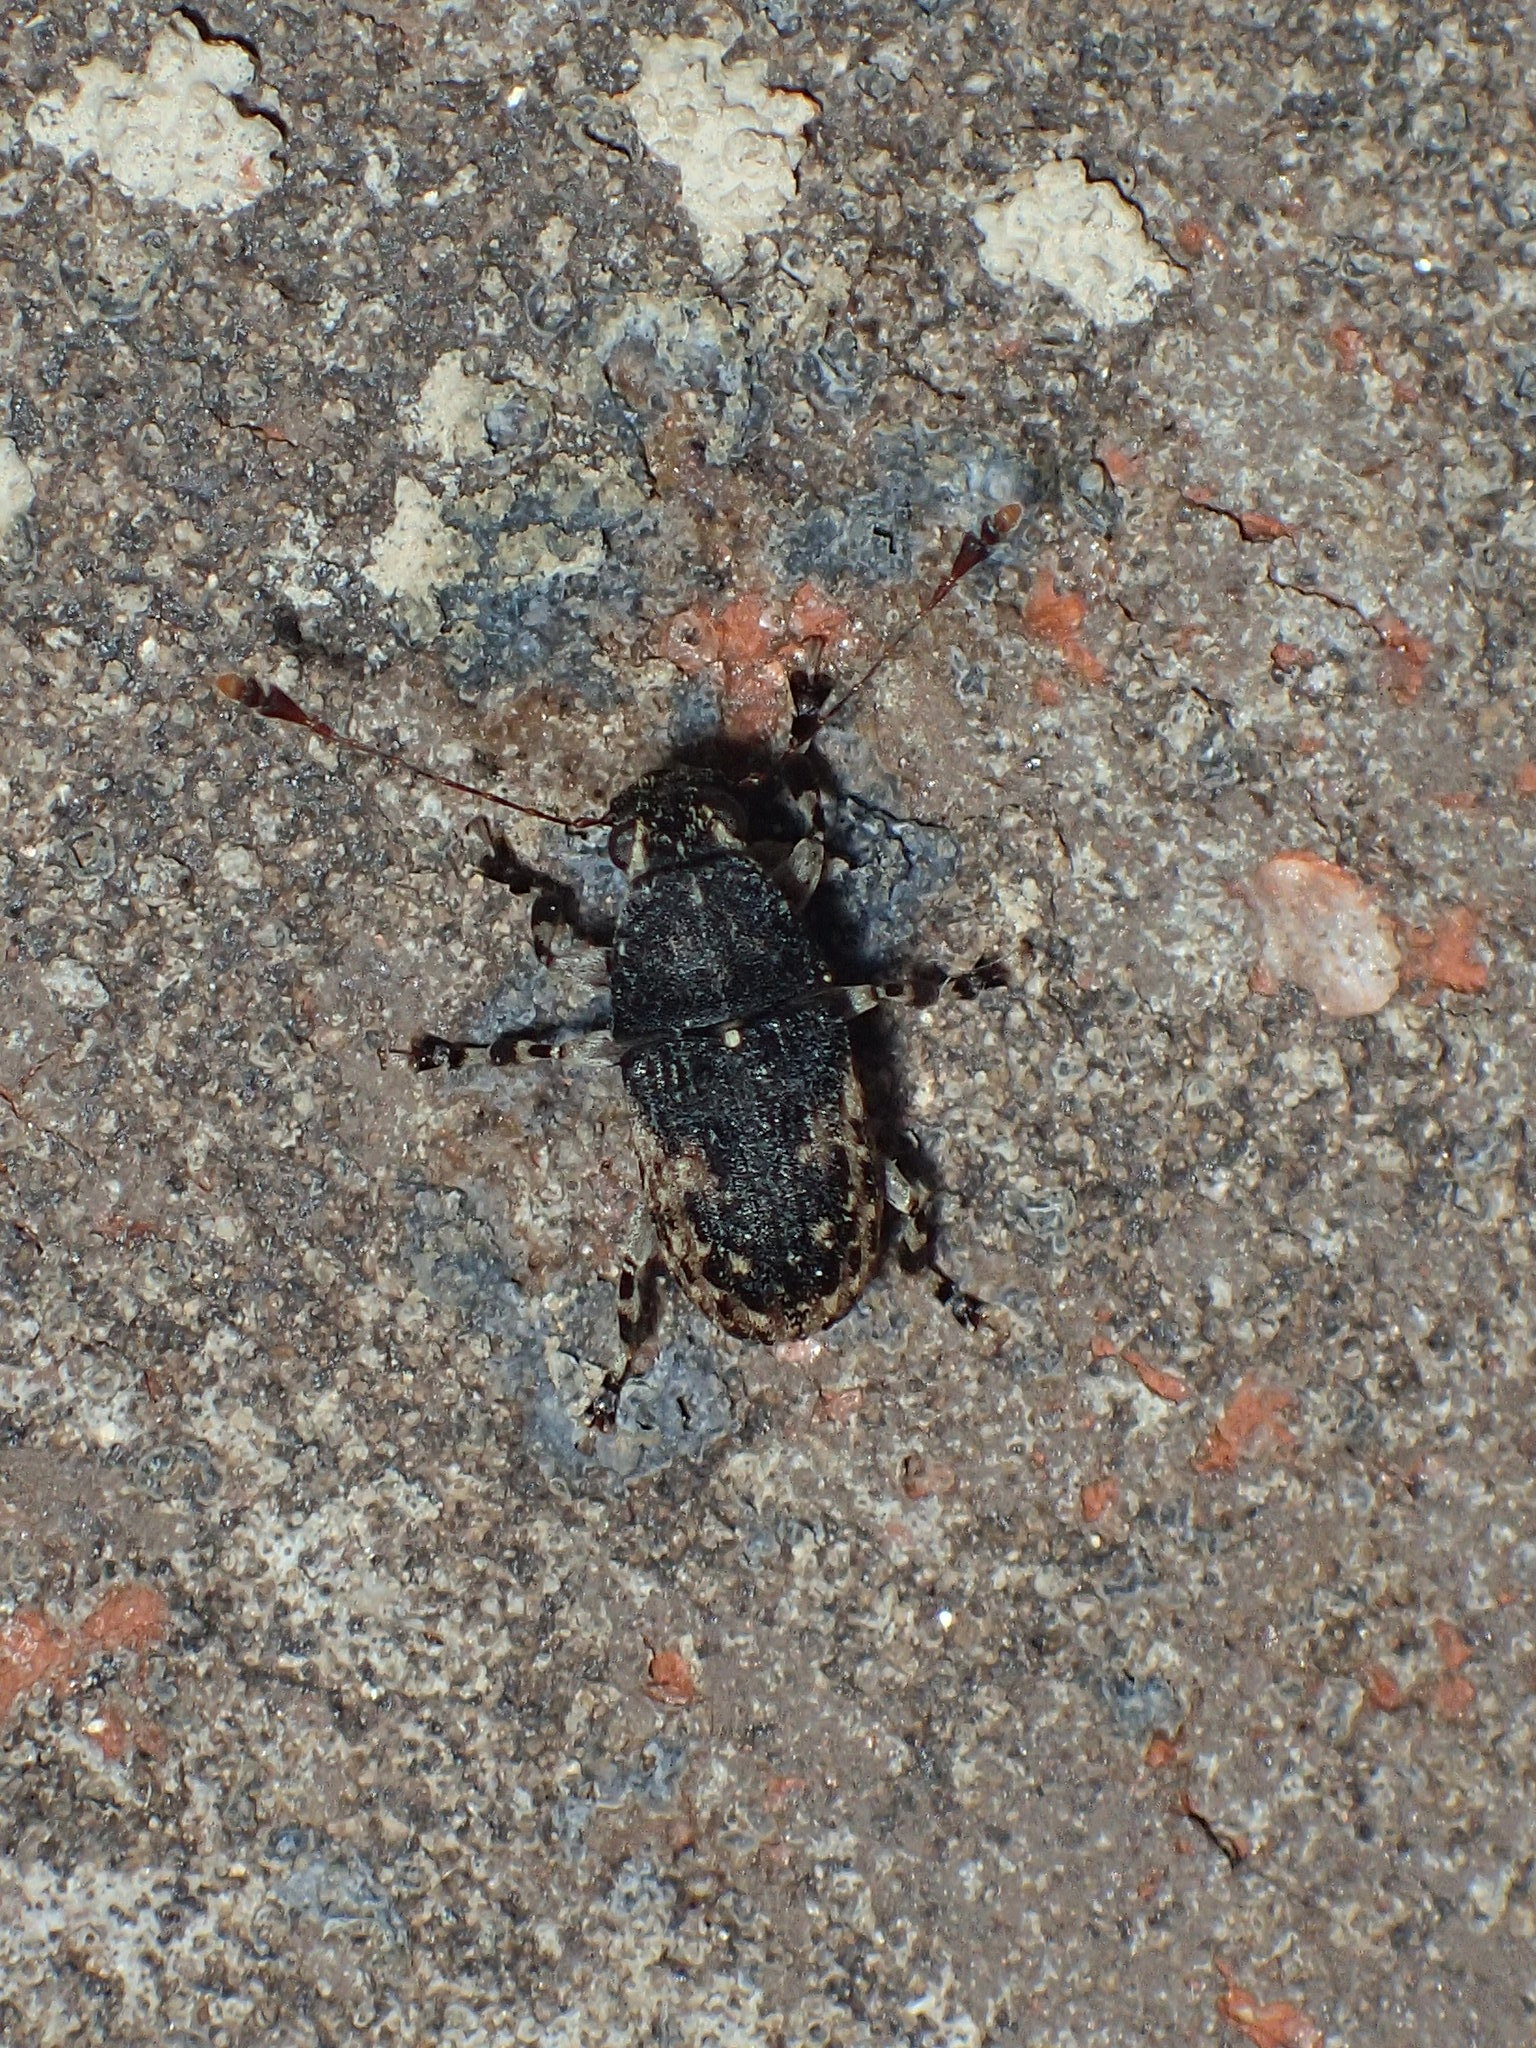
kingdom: Animalia
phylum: Arthropoda
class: Insecta
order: Coleoptera
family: Anthribidae
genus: Piesocorynus
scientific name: Piesocorynus lateralis
